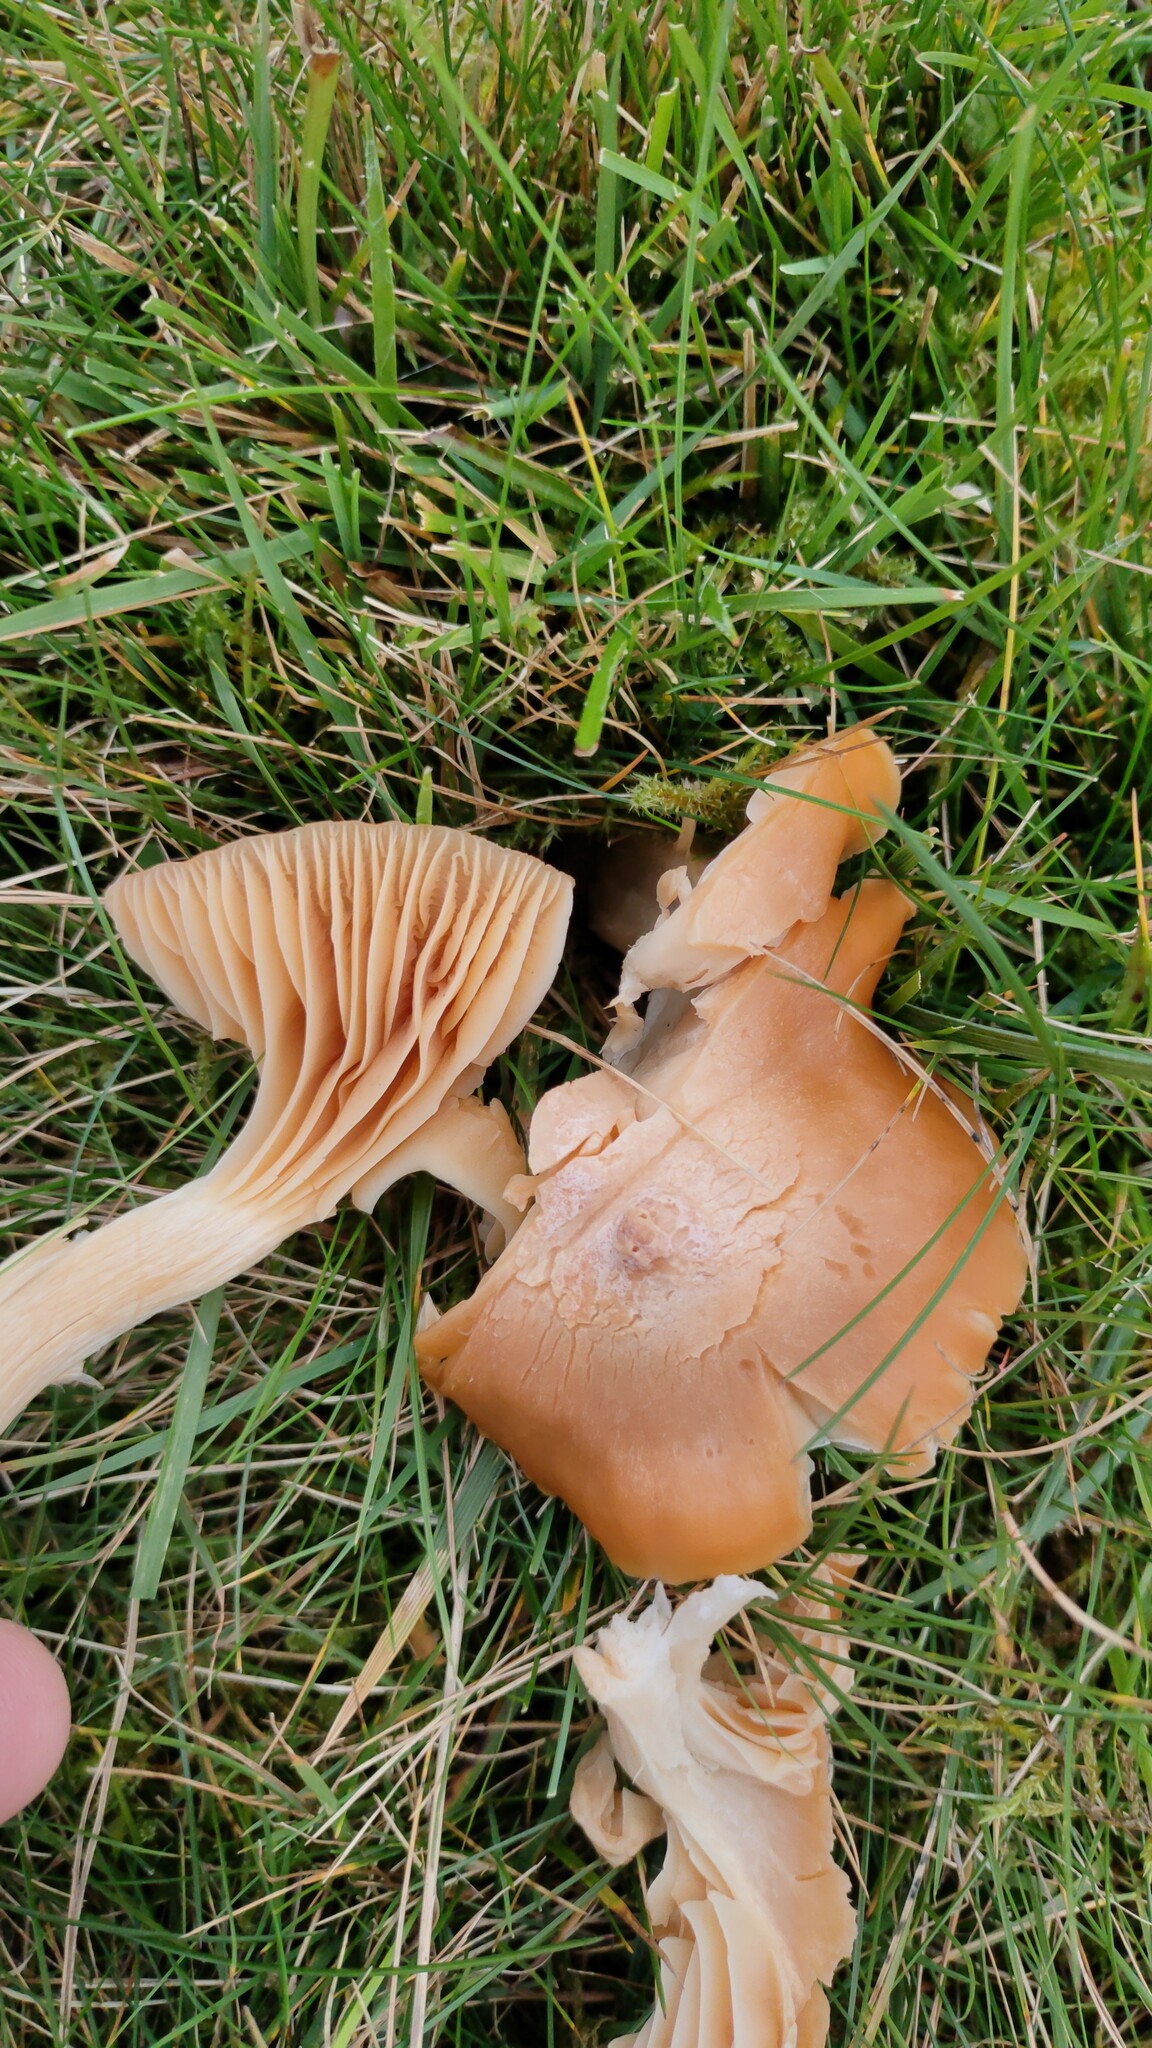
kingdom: Fungi
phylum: Basidiomycota
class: Agaricomycetes
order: Agaricales
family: Hygrophoraceae
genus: Cuphophyllus
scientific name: Cuphophyllus pratensis
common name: Meadow waxcap
